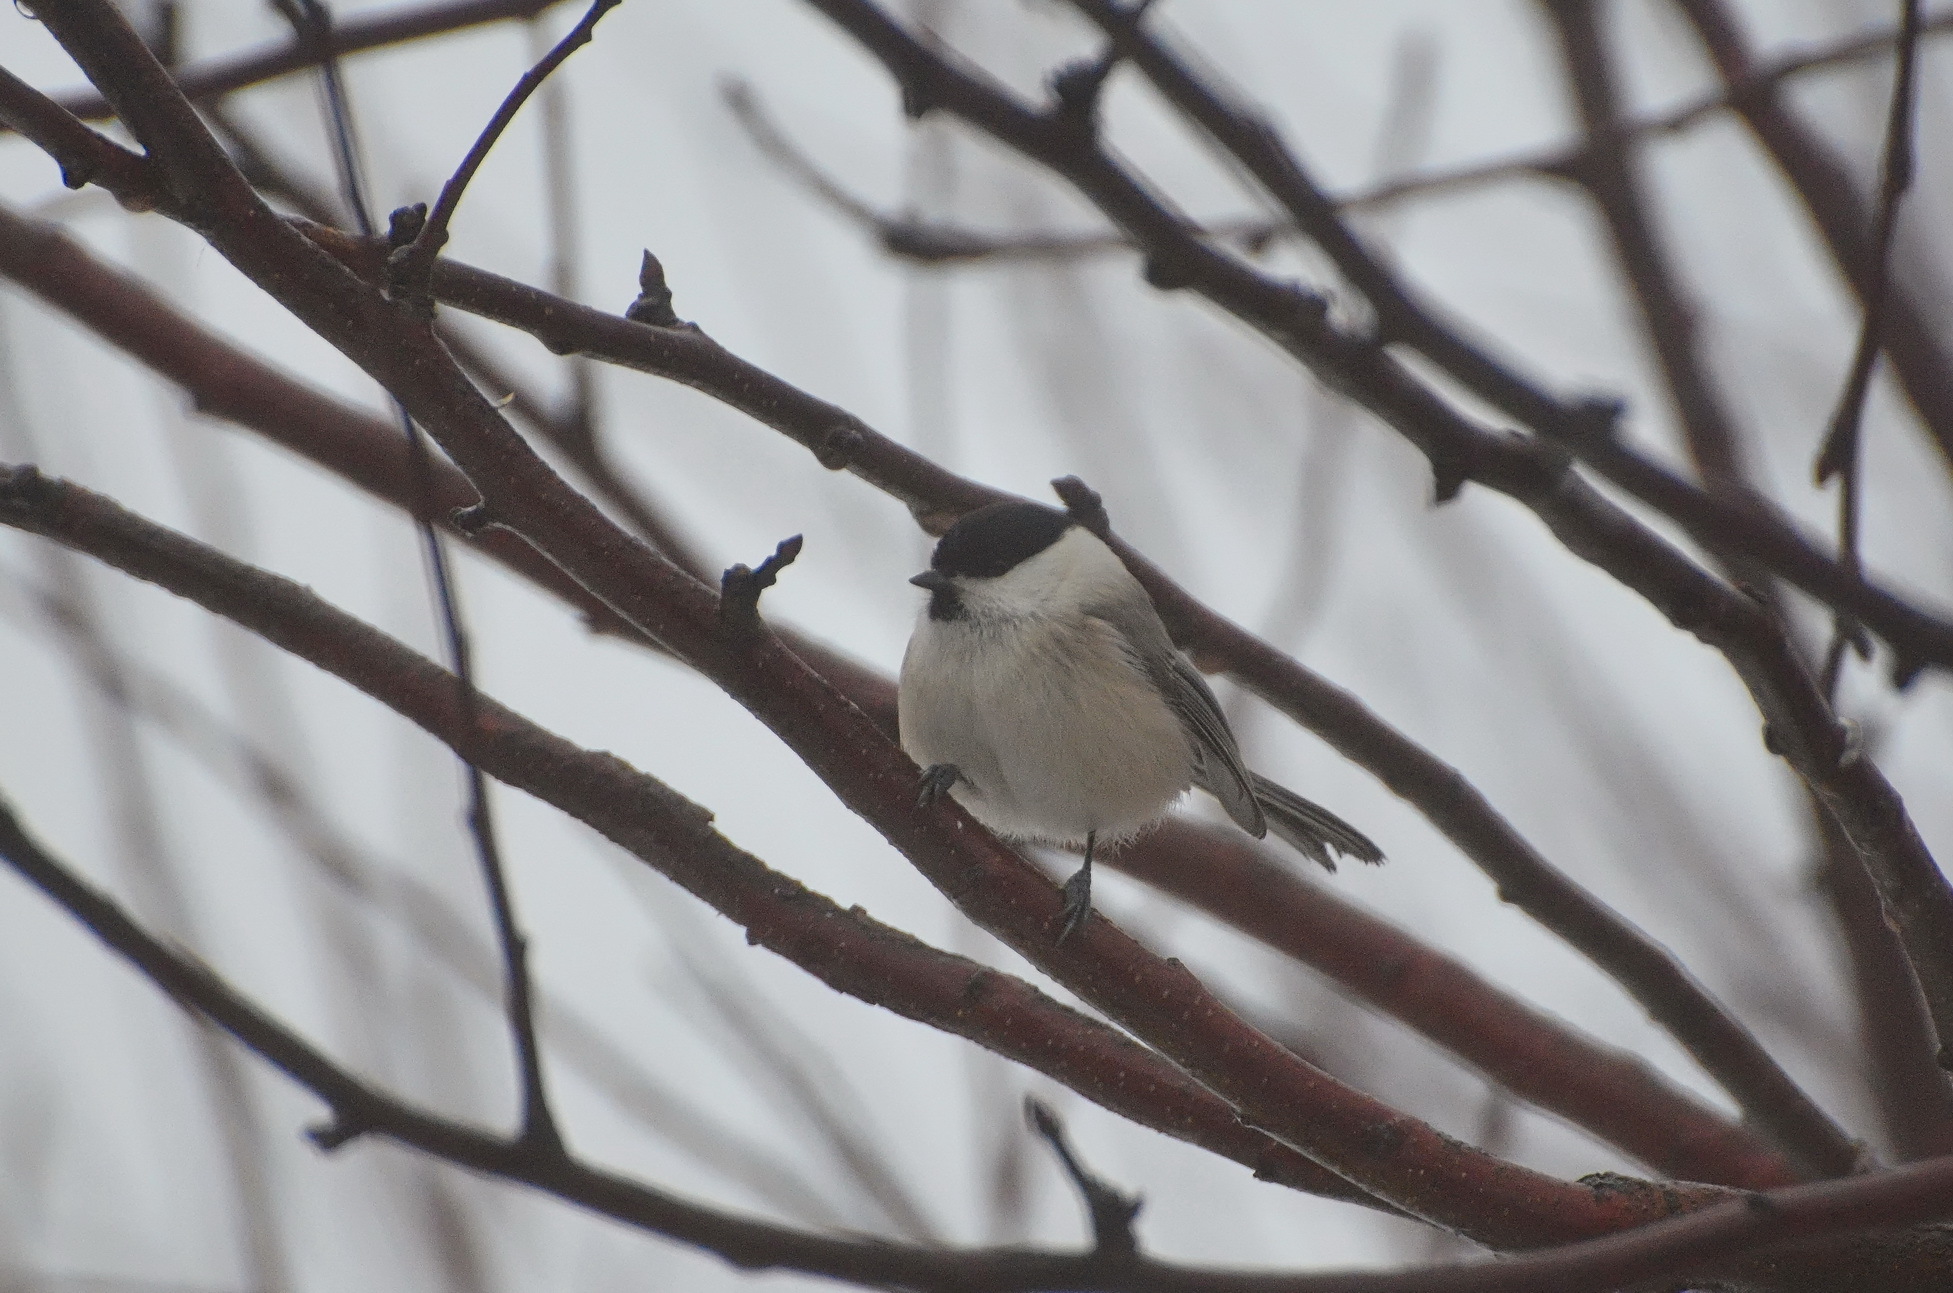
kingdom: Animalia
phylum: Chordata
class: Aves
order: Passeriformes
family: Paridae
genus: Poecile
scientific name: Poecile montanus
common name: Willow tit
